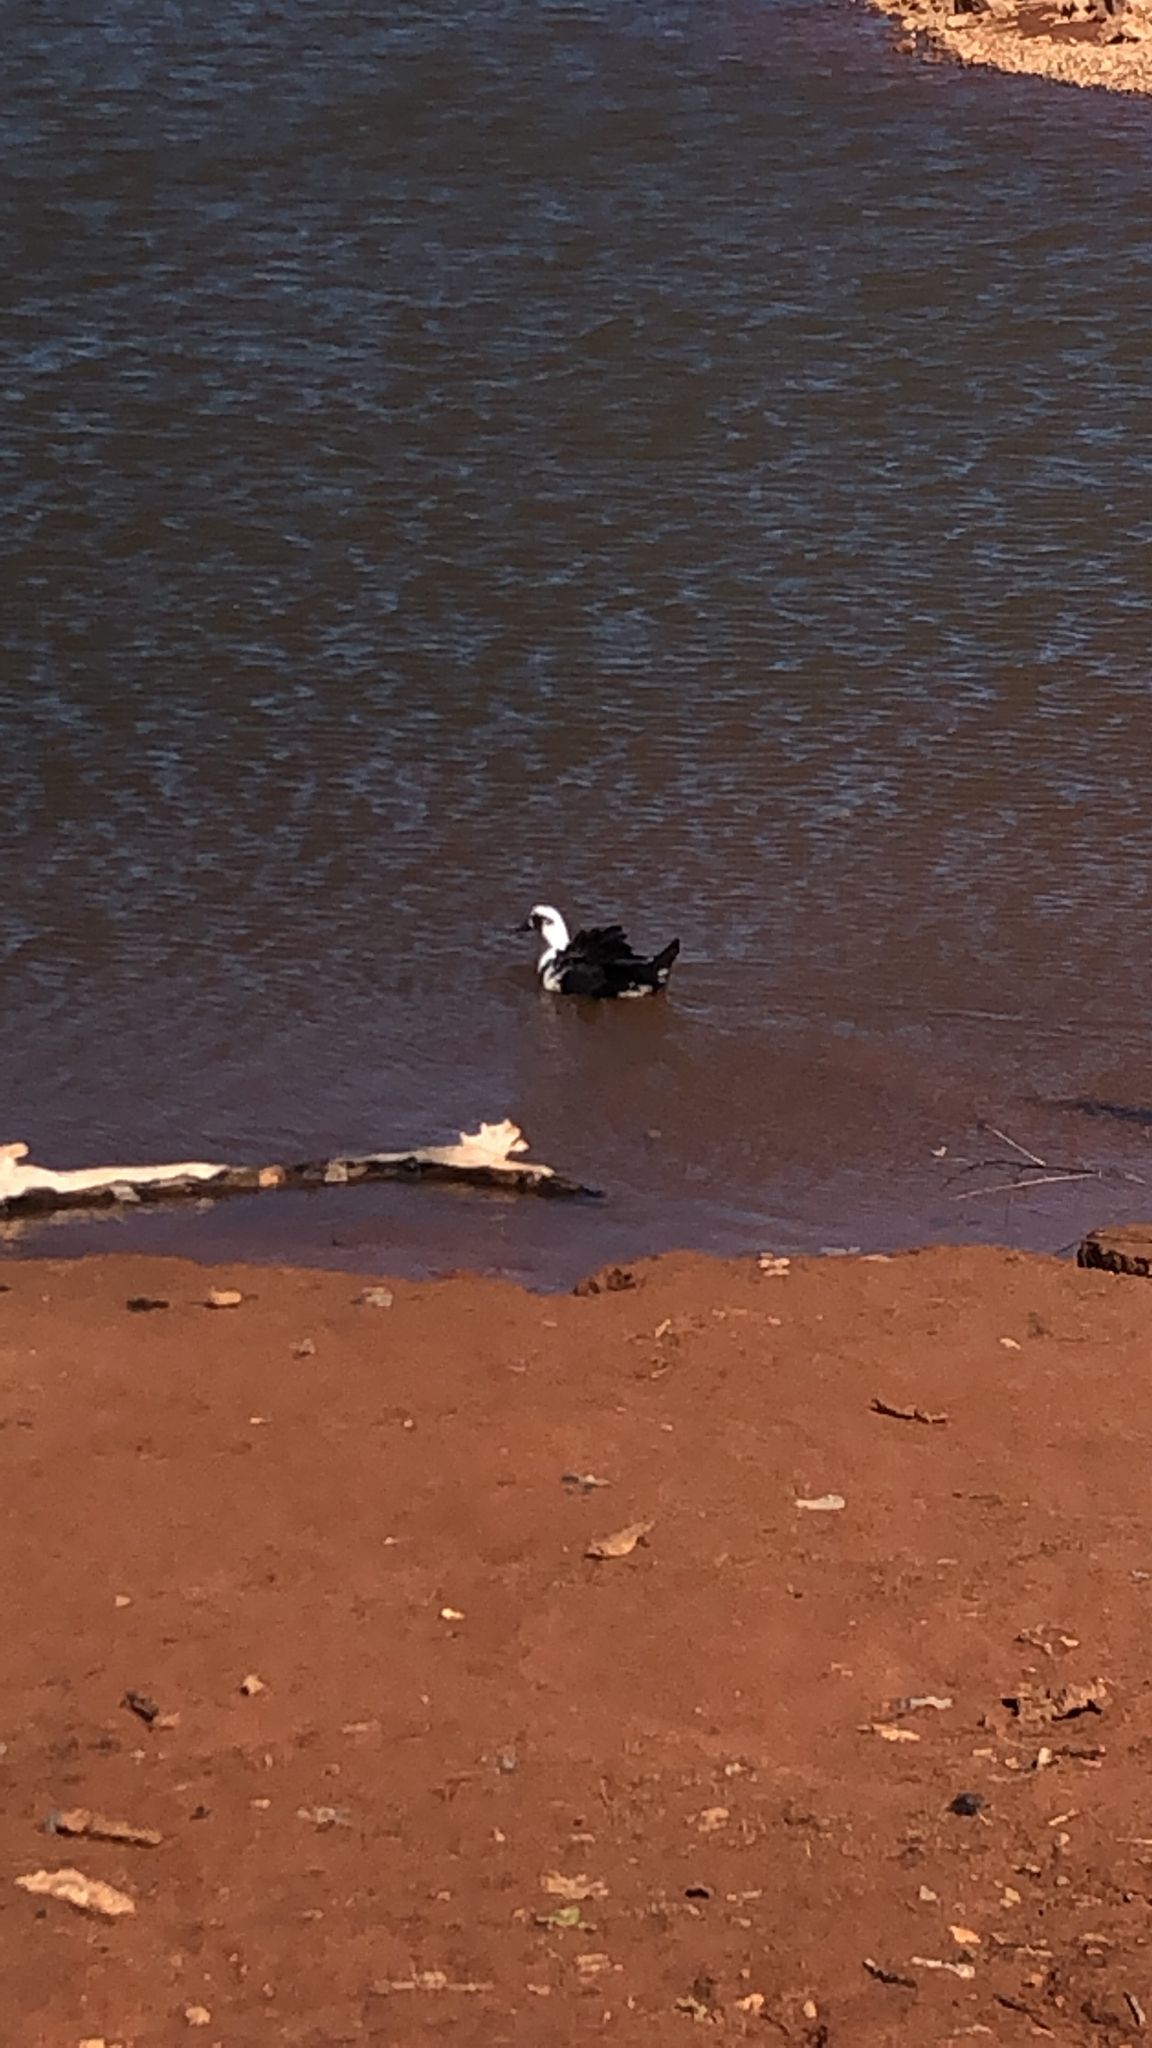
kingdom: Animalia
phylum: Chordata
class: Aves
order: Anseriformes
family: Anatidae
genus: Cairina
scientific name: Cairina moschata
